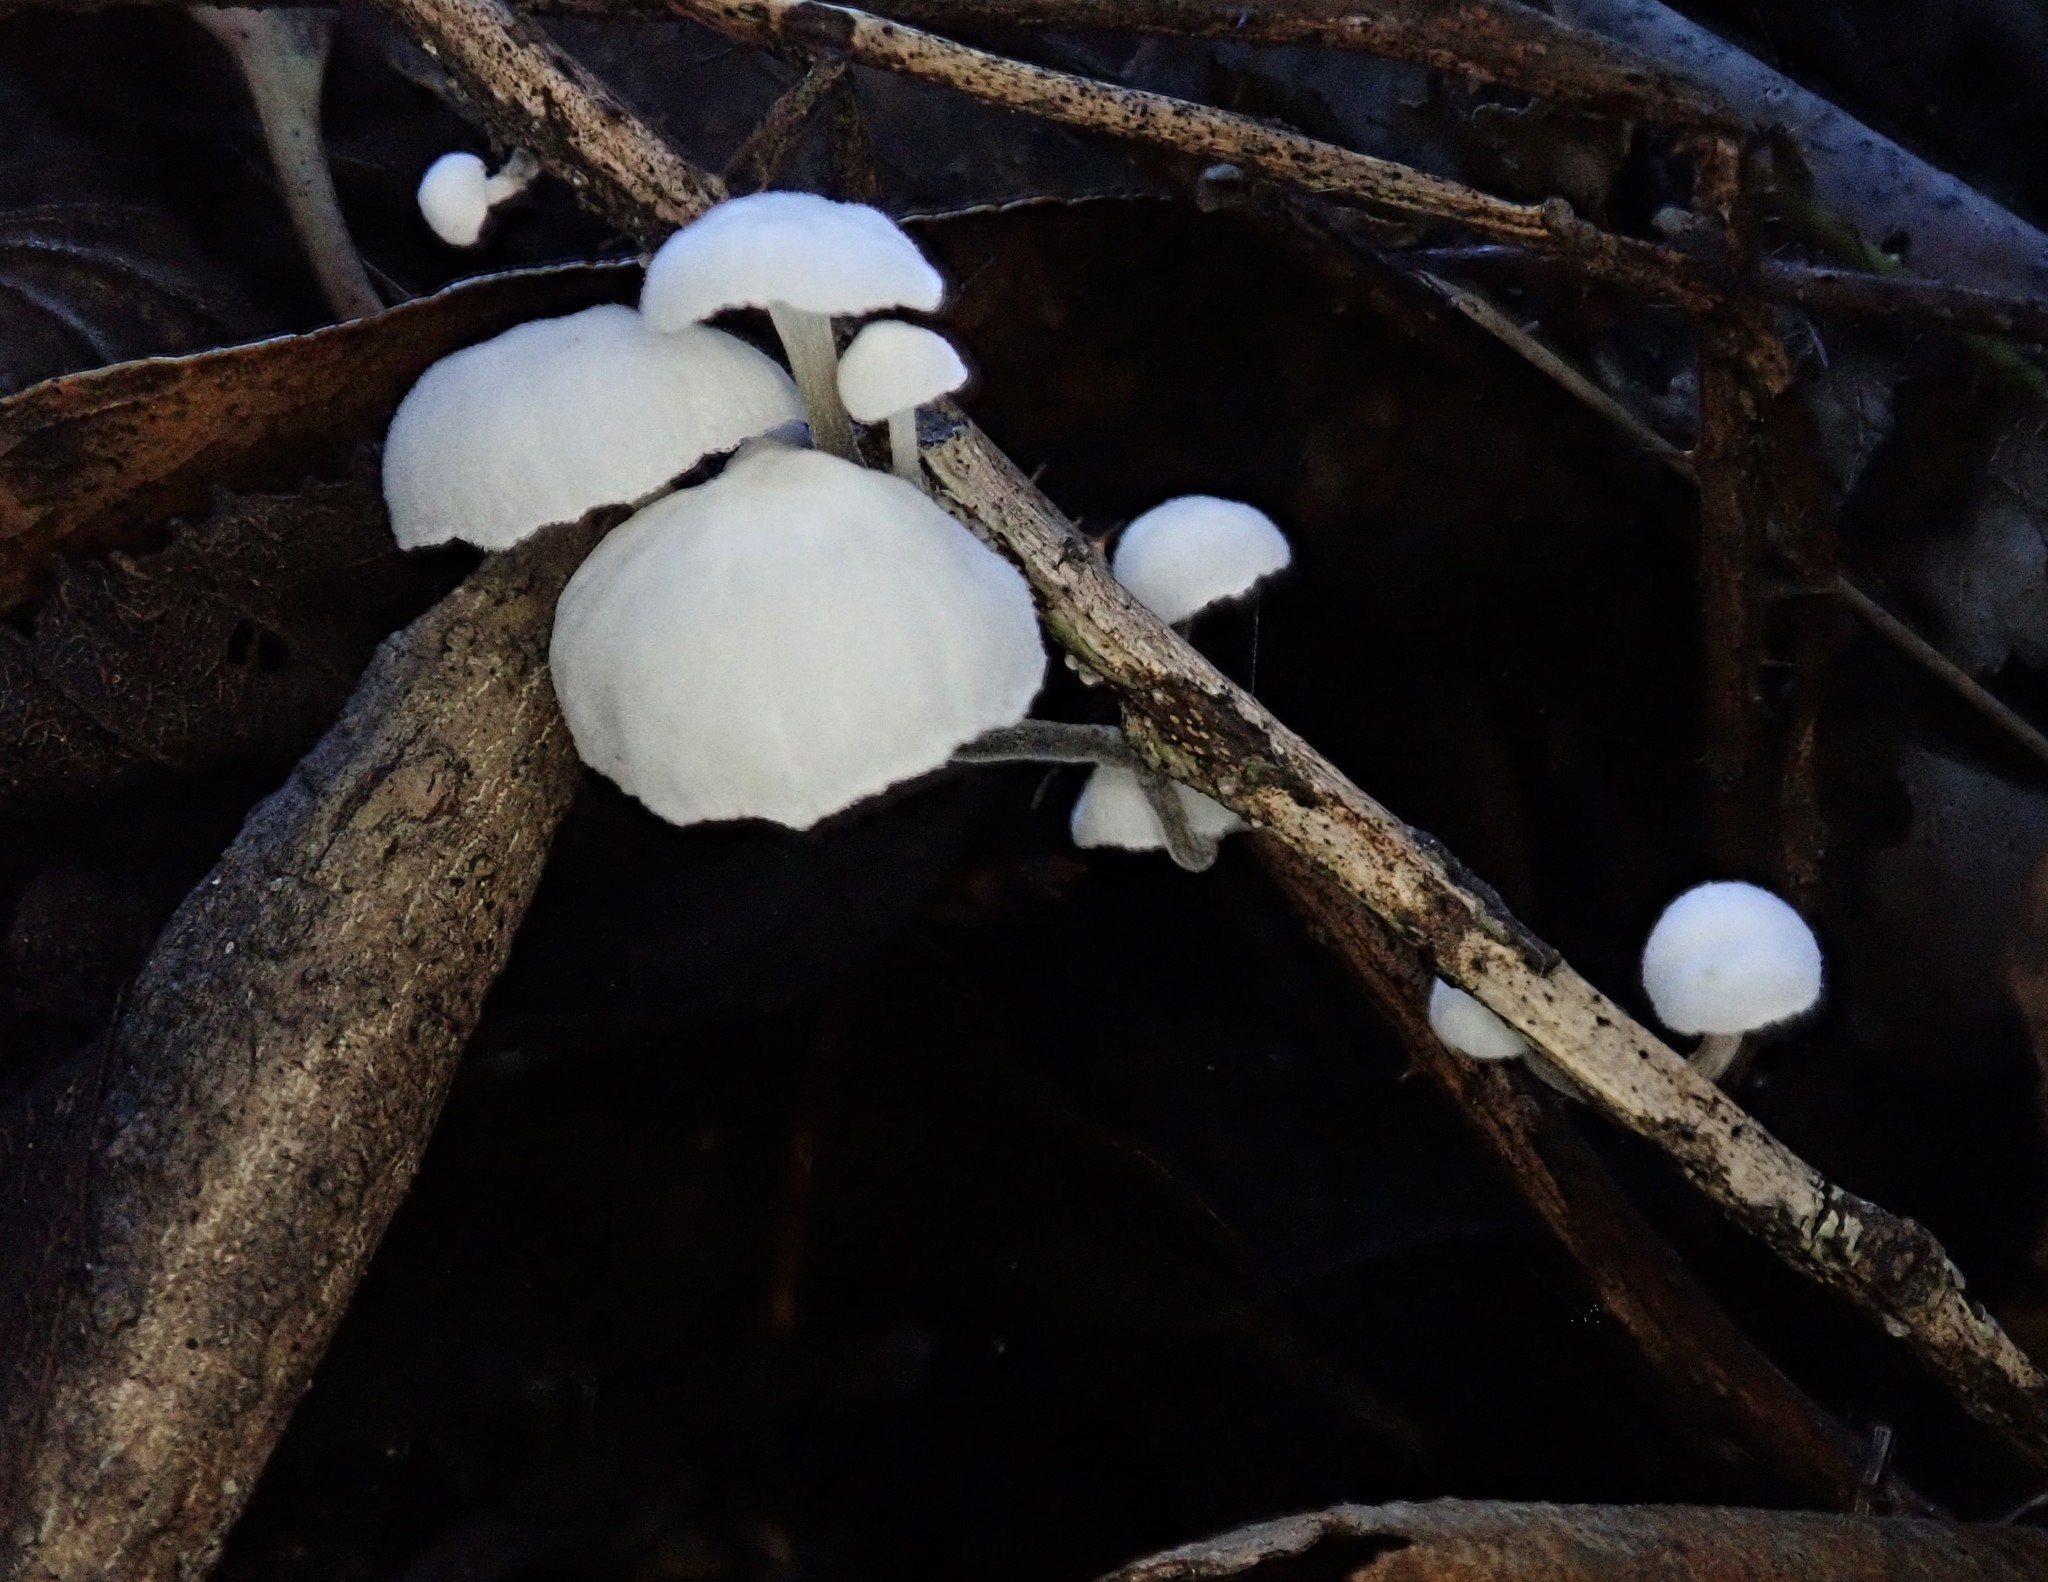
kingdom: Fungi
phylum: Basidiomycota
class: Agaricomycetes
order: Agaricales
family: Omphalotaceae
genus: Marasmiellus
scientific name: Marasmiellus candidus
